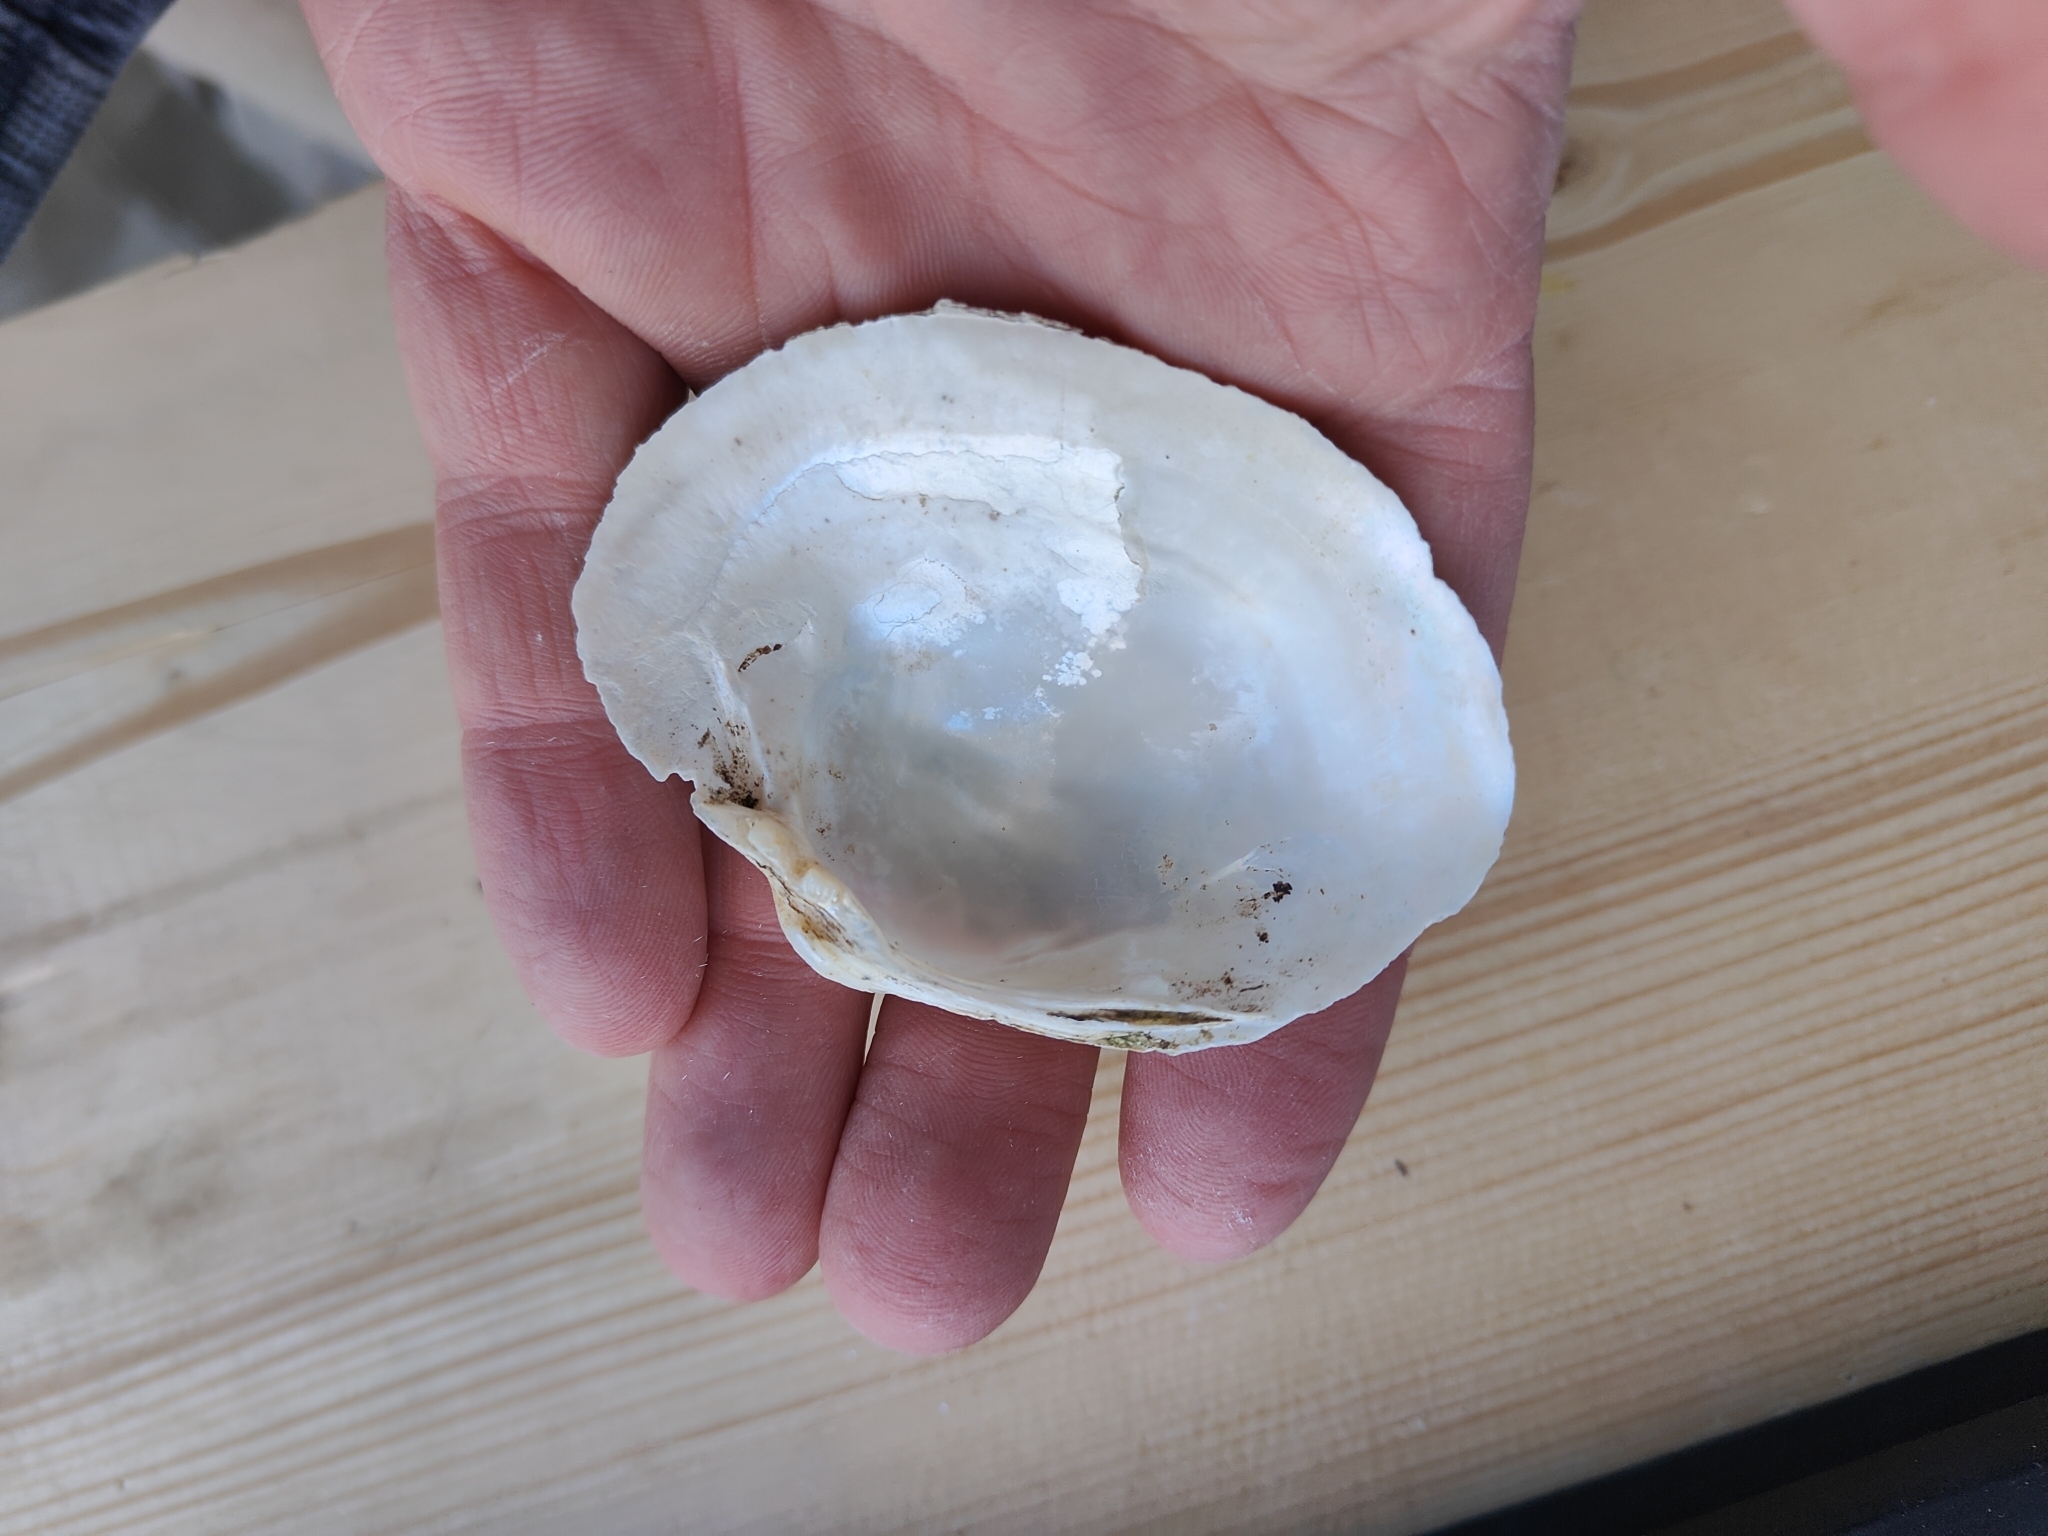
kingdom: Animalia
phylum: Mollusca
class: Bivalvia
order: Unionida
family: Unionidae
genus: Lampsilis
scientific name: Lampsilis cardium
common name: Plain pocketbook
